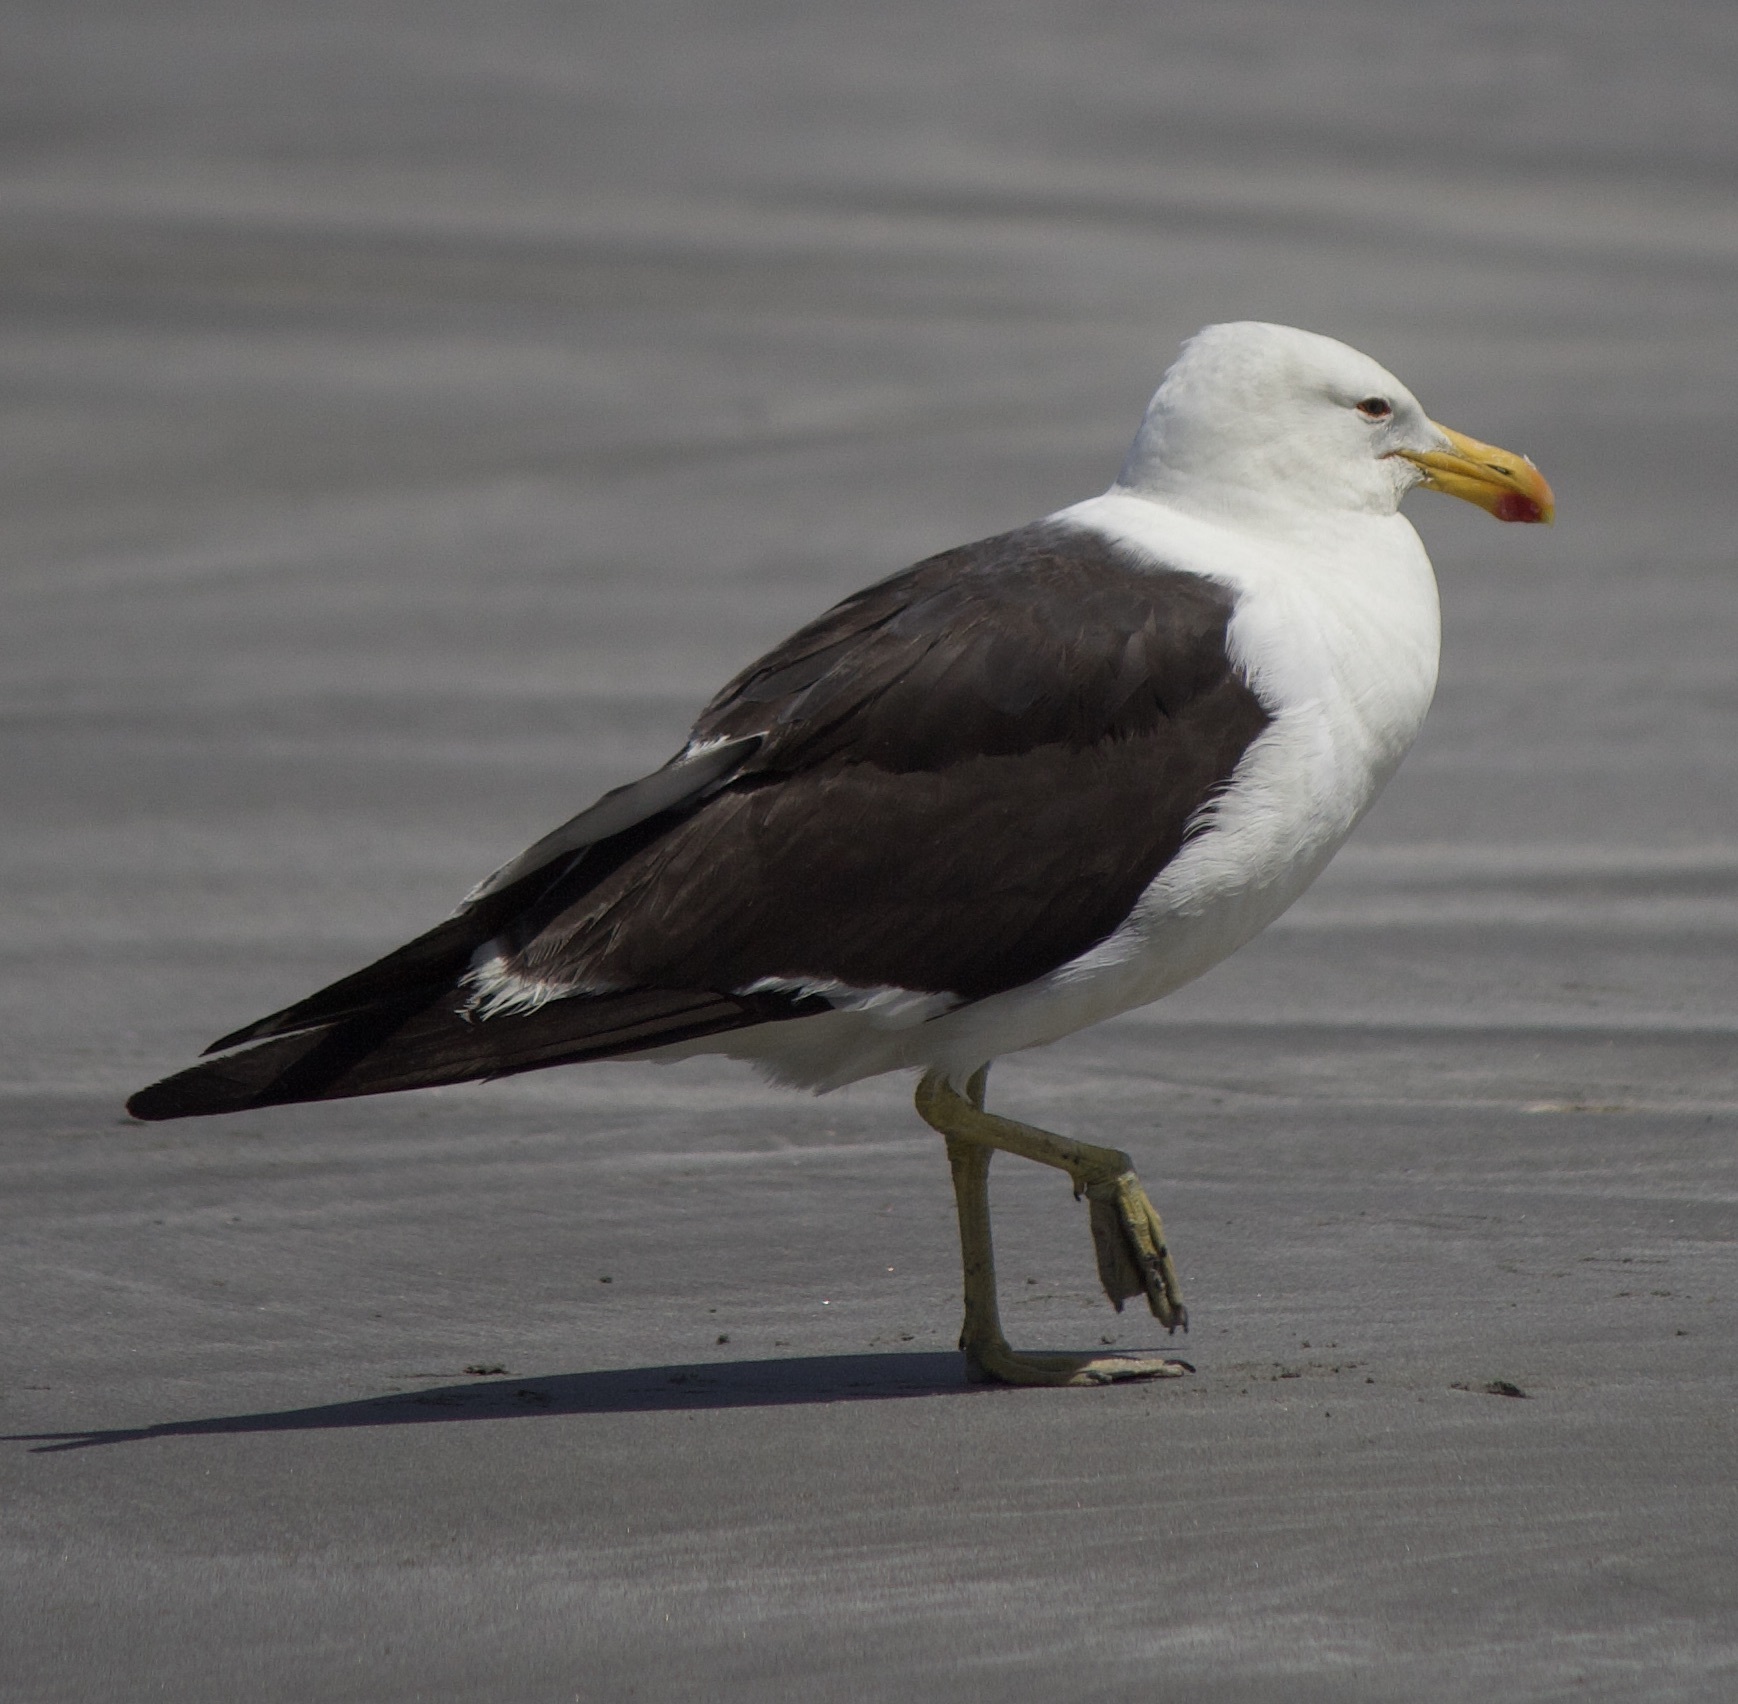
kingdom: Animalia
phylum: Chordata
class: Aves
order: Charadriiformes
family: Laridae
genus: Larus
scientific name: Larus dominicanus
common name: Kelp gull
